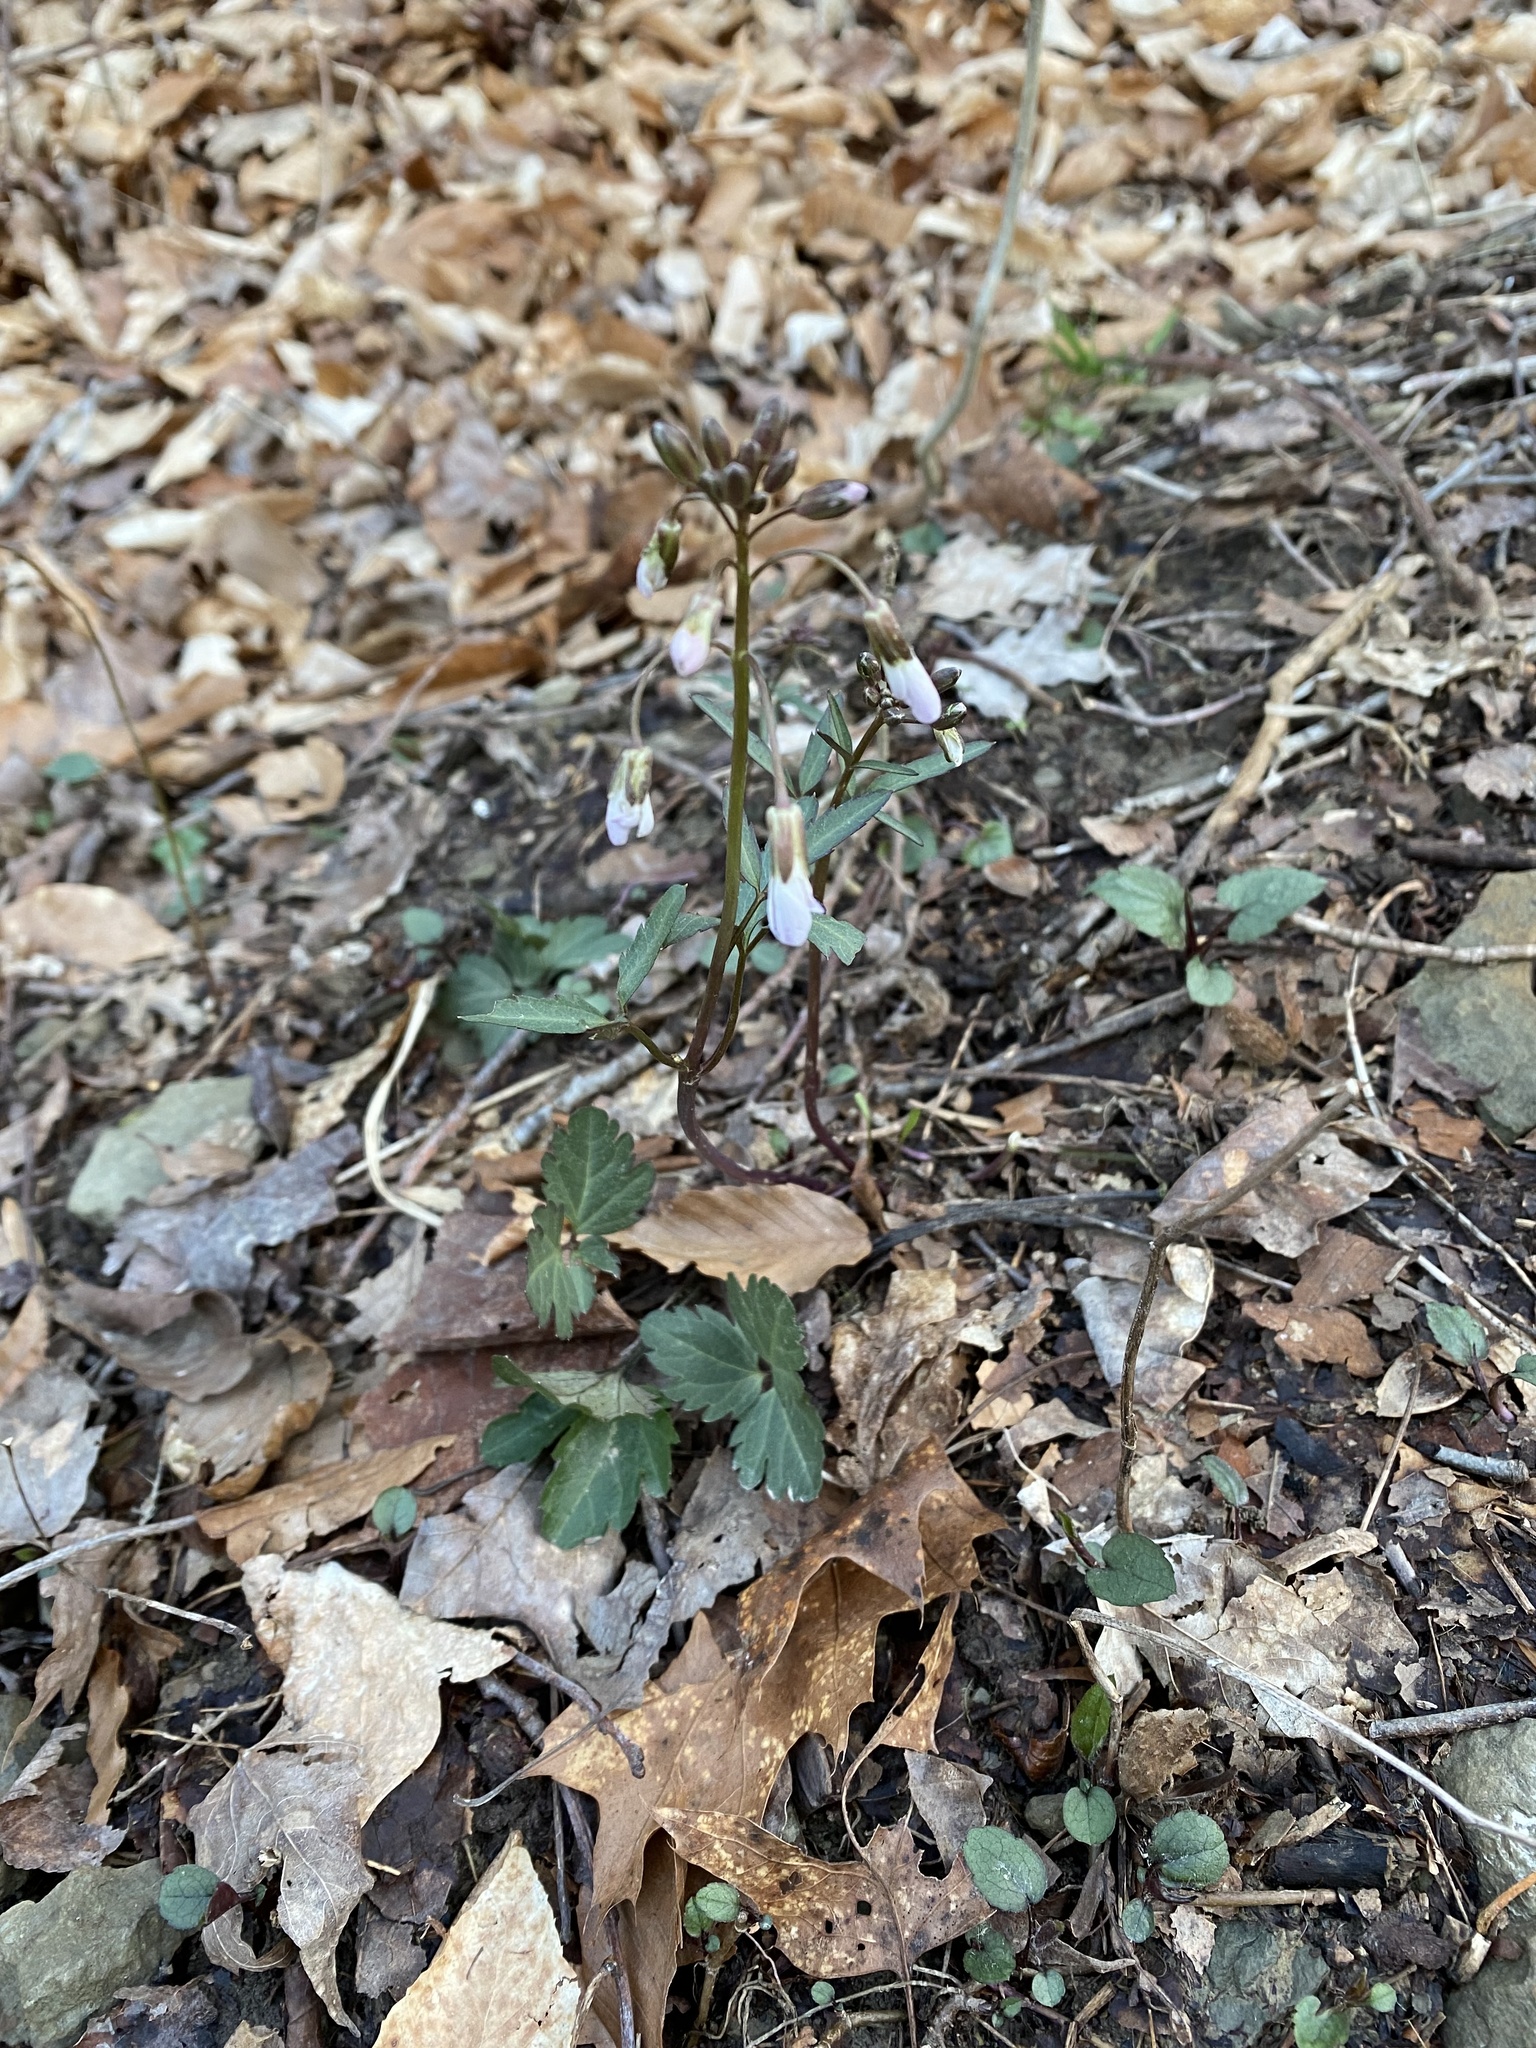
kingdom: Plantae
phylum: Tracheophyta
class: Magnoliopsida
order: Brassicales
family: Brassicaceae
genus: Cardamine
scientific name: Cardamine angustata
